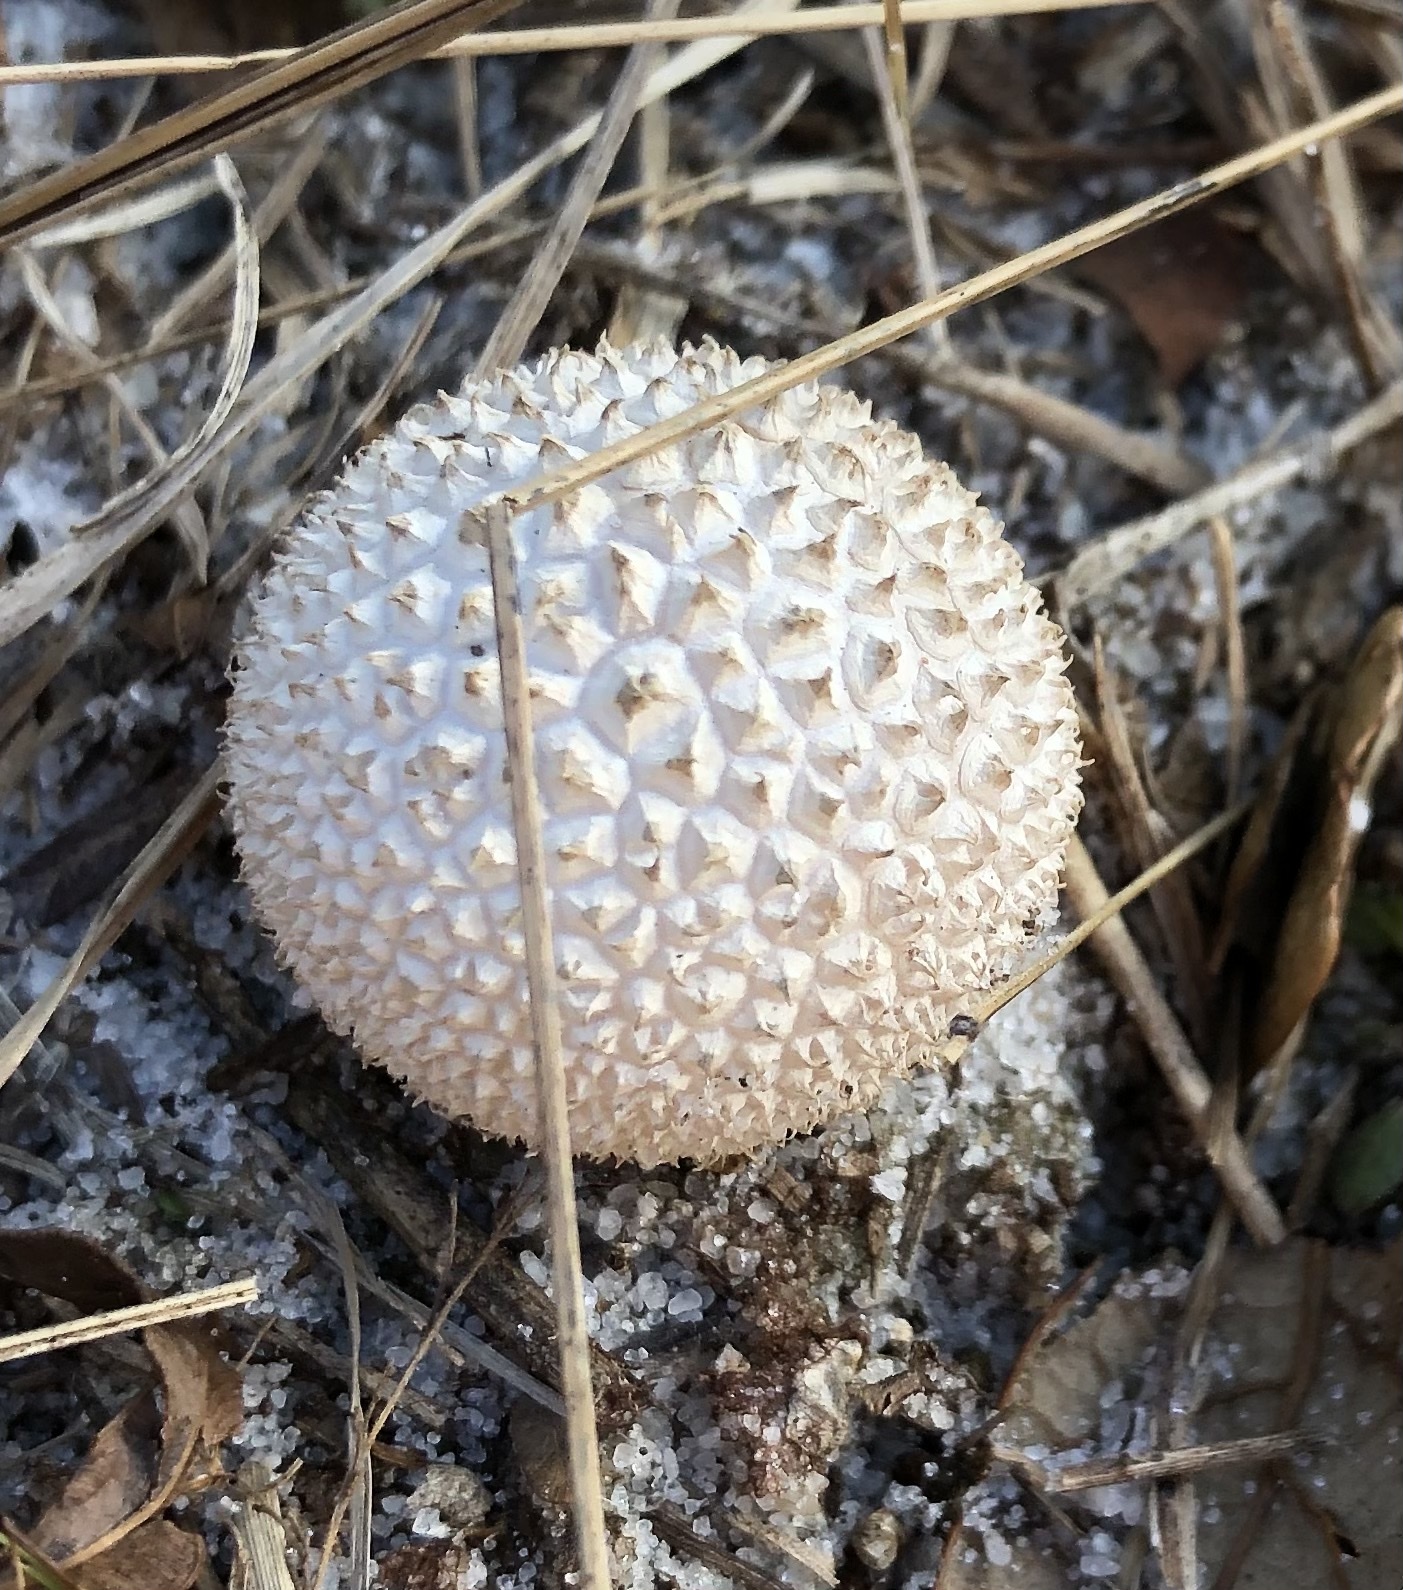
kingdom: Fungi
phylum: Basidiomycota
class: Agaricomycetes
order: Agaricales
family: Agaricaceae
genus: Lycoperdon
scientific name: Lycoperdon marginatum
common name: Peeling puffball
